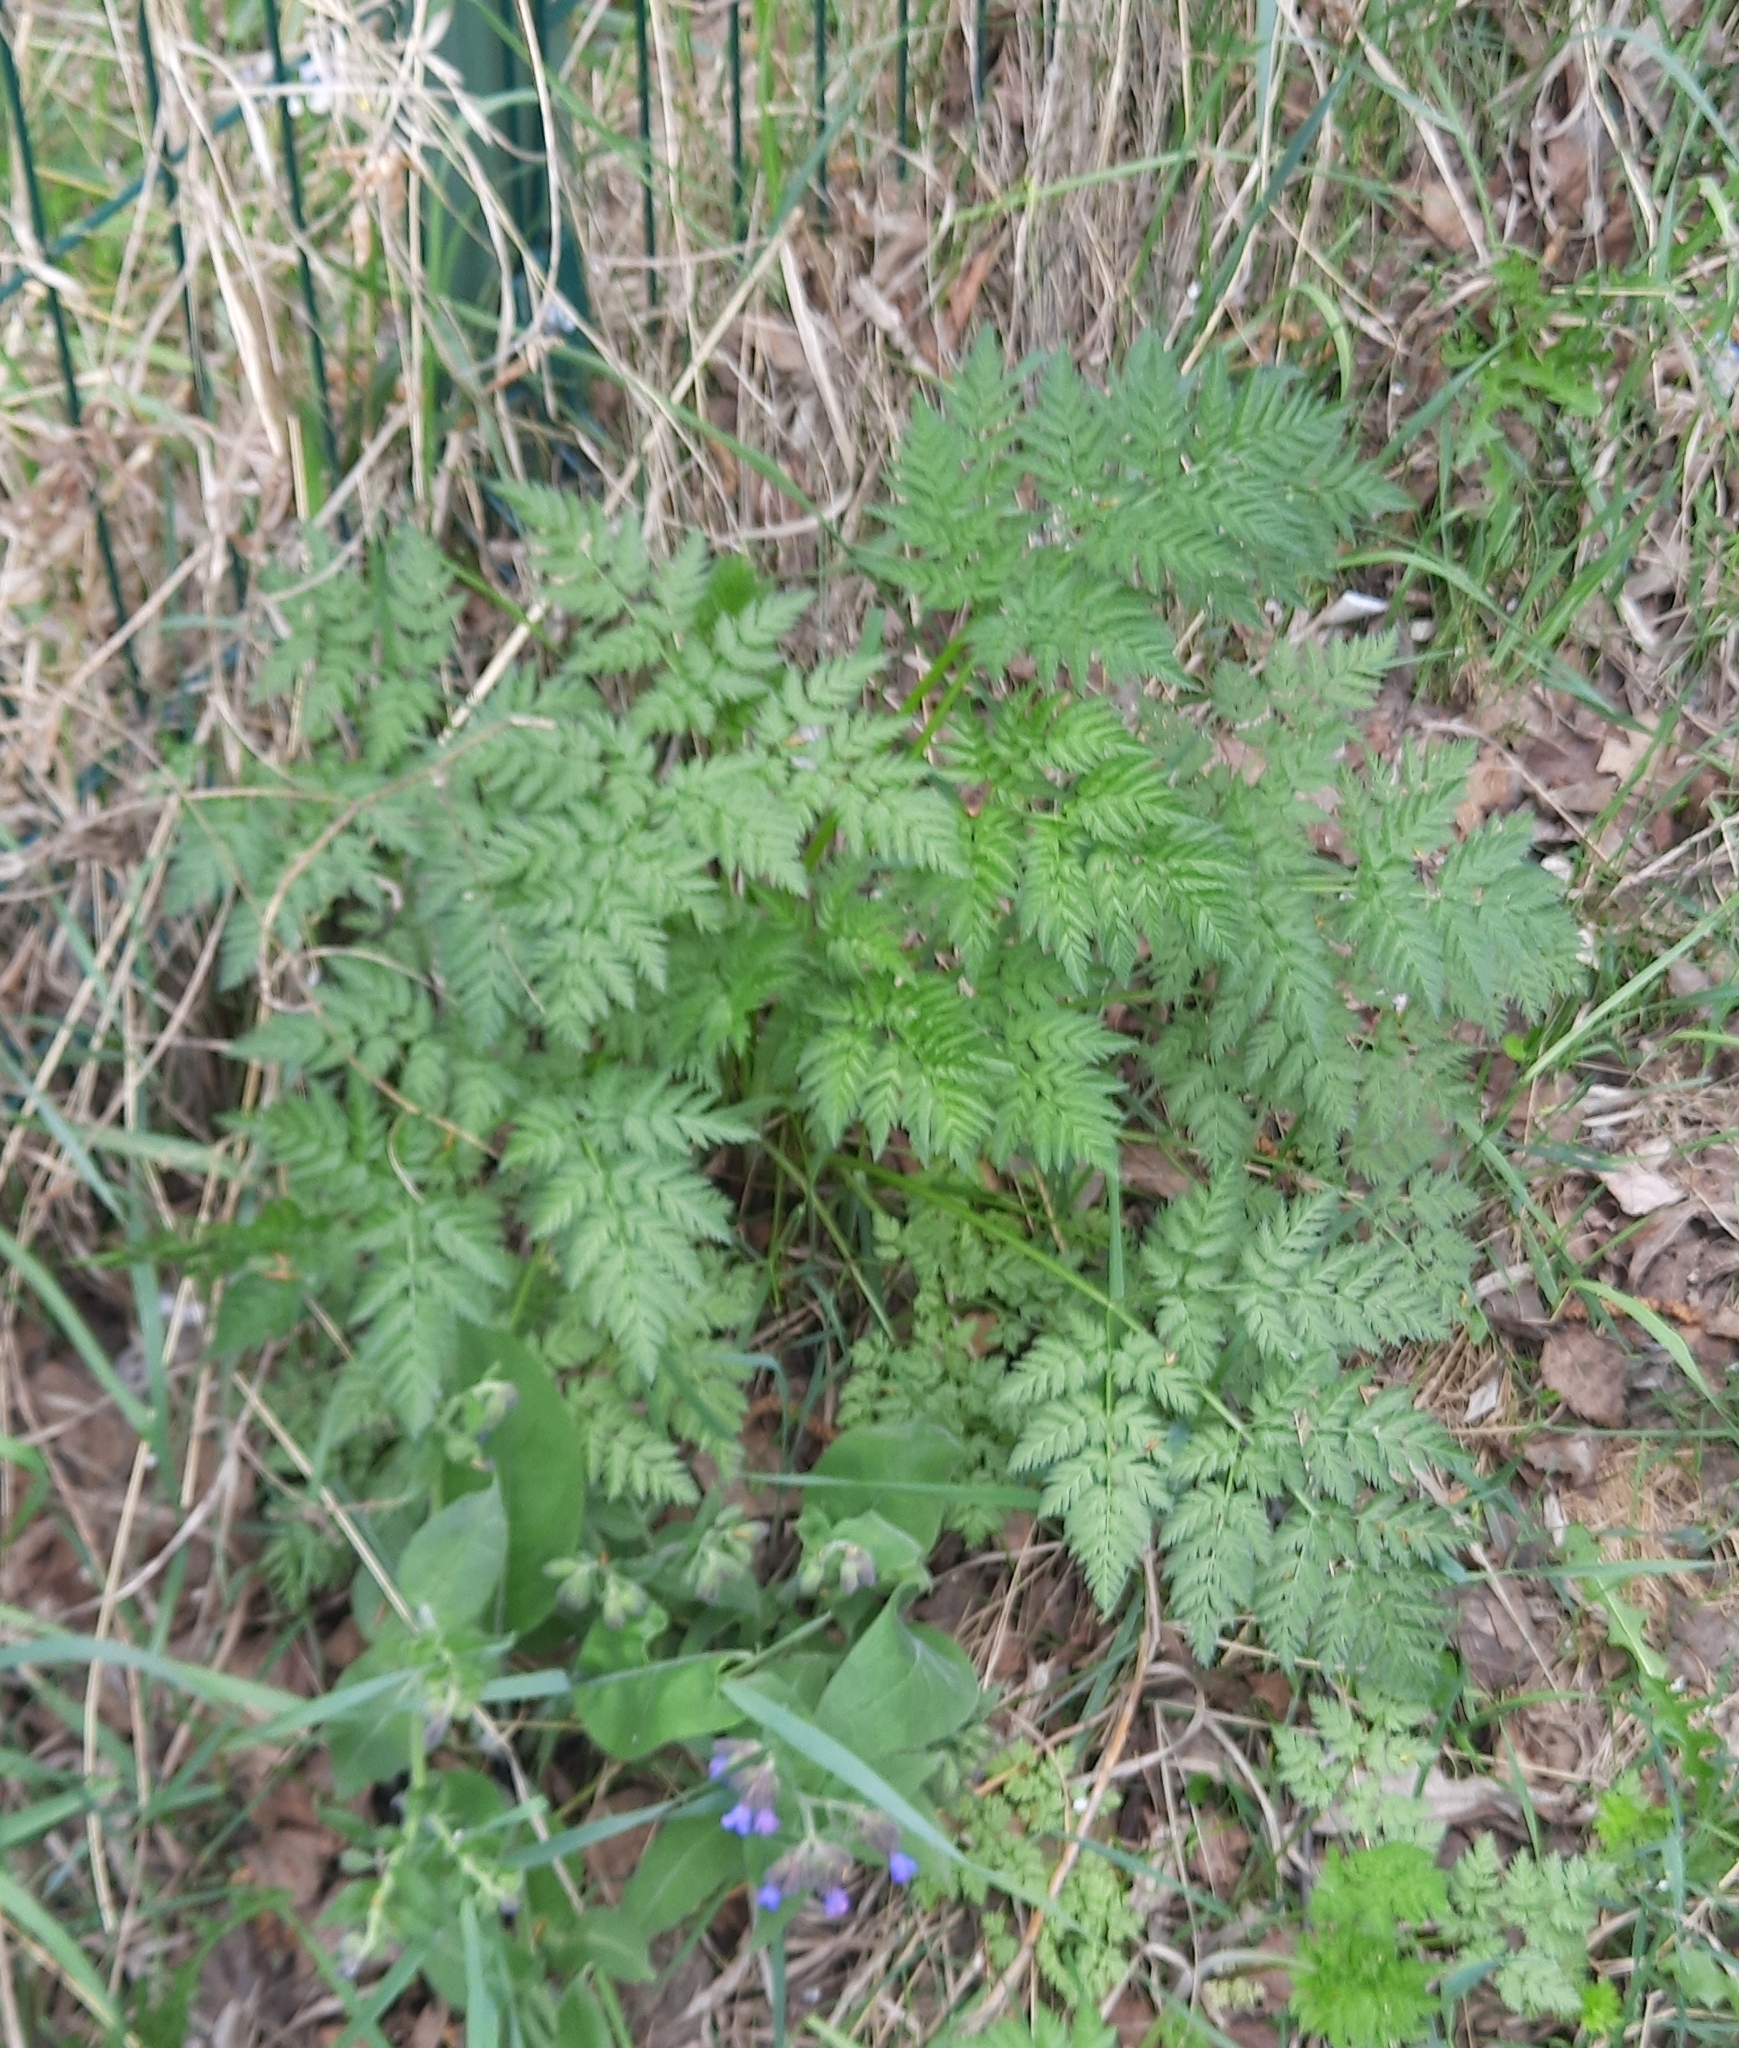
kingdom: Plantae
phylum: Tracheophyta
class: Magnoliopsida
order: Apiales
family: Apiaceae
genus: Anthriscus
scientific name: Anthriscus sylvestris
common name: Cow parsley
